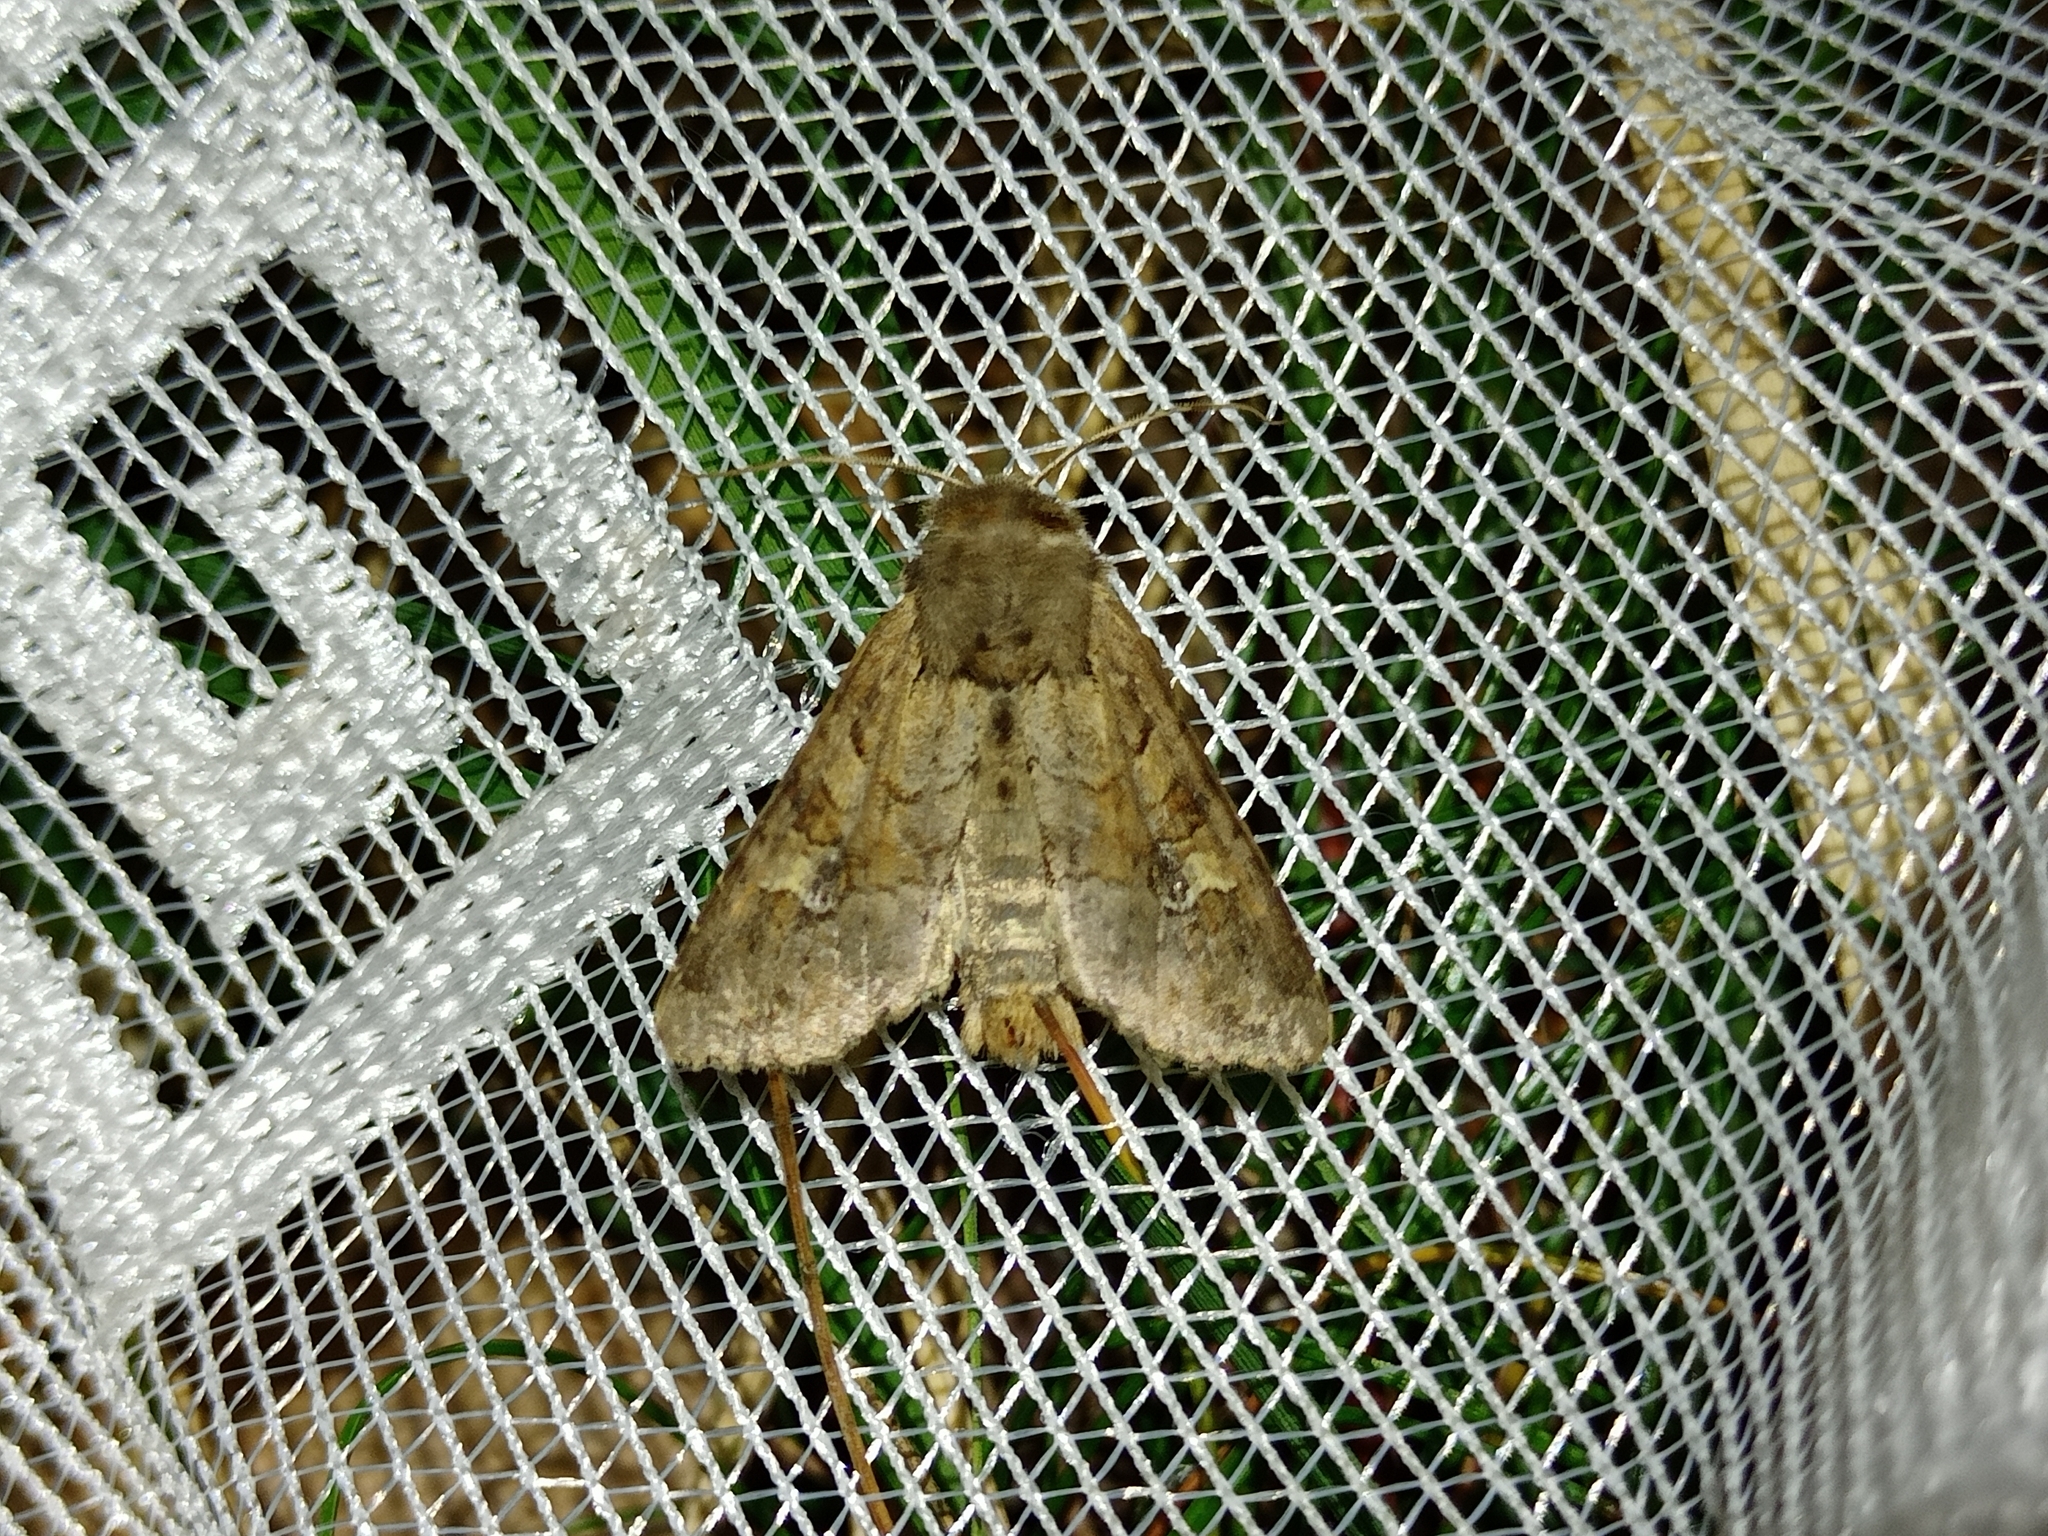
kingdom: Animalia
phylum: Arthropoda
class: Insecta
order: Lepidoptera
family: Noctuidae
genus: Apamea
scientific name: Apamea sordens
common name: Rustic shoulder-knot
